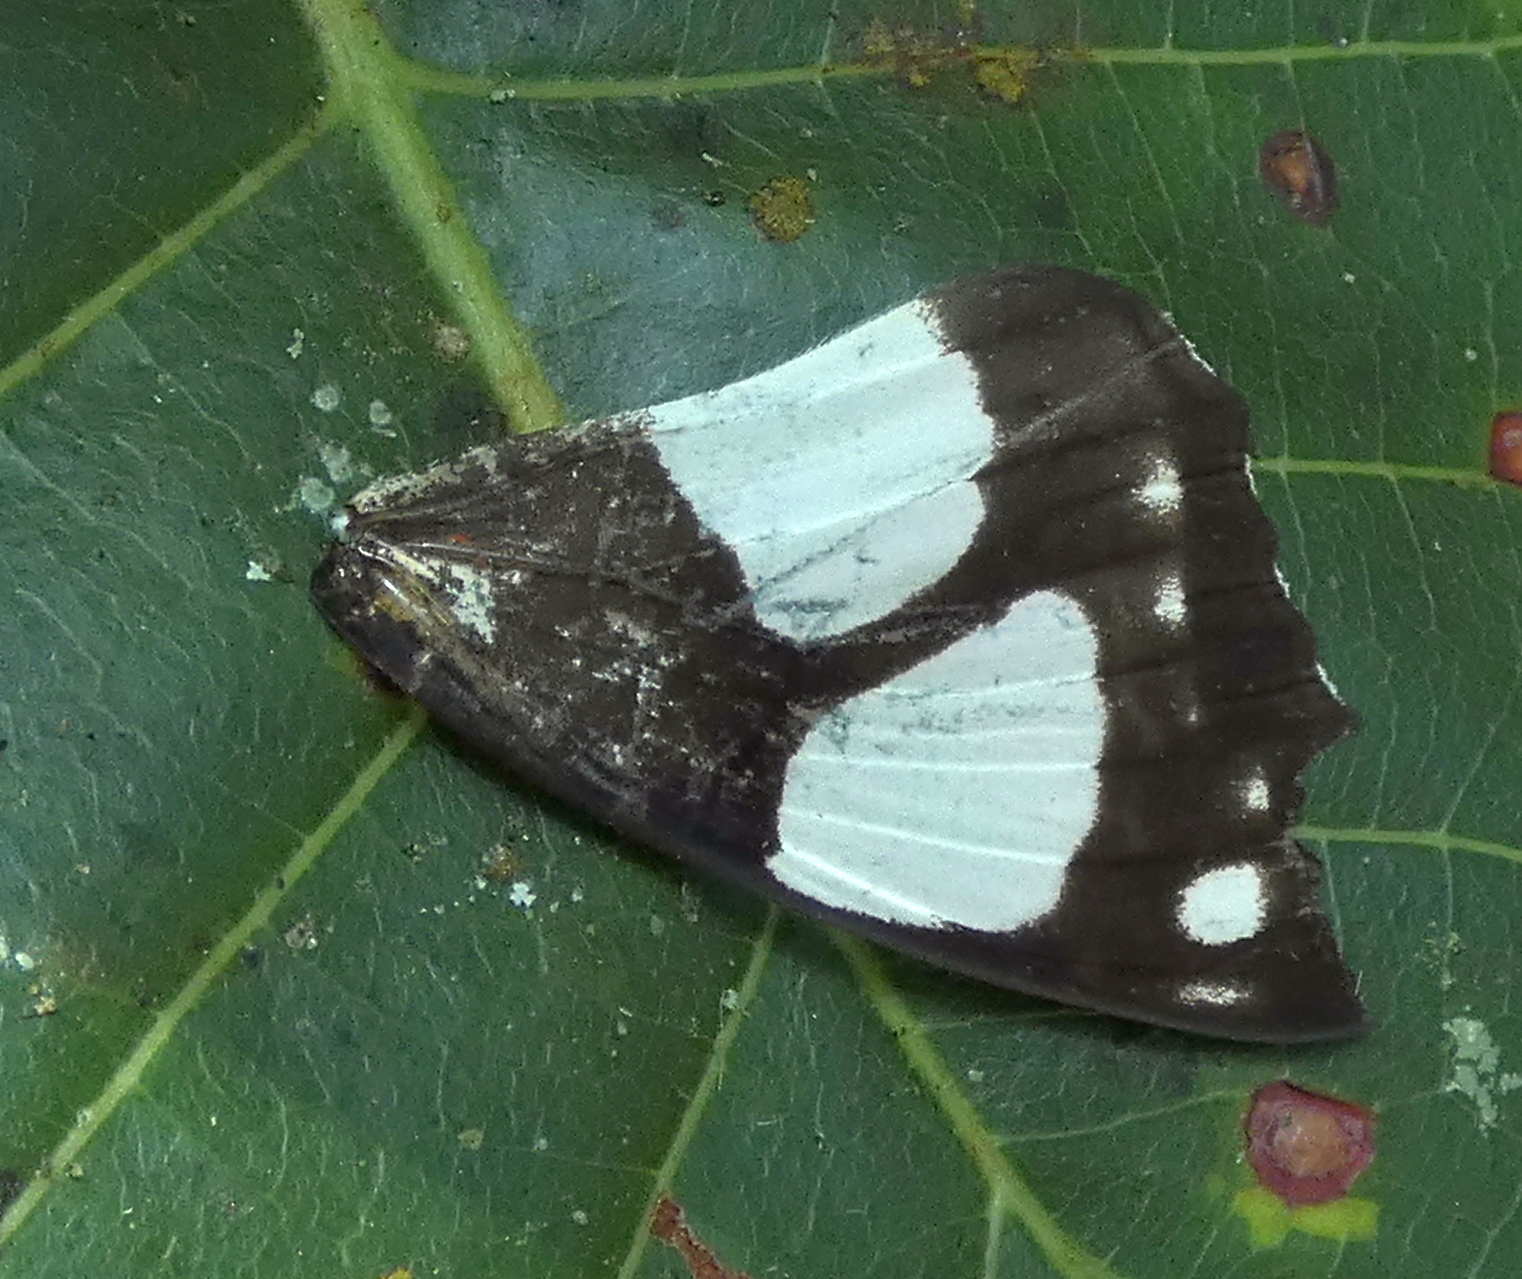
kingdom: Animalia
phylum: Arthropoda
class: Insecta
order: Lepidoptera
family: Nymphalidae
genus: Pyrrhogyra
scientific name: Pyrrhogyra neaerea
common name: Leading red-ring
